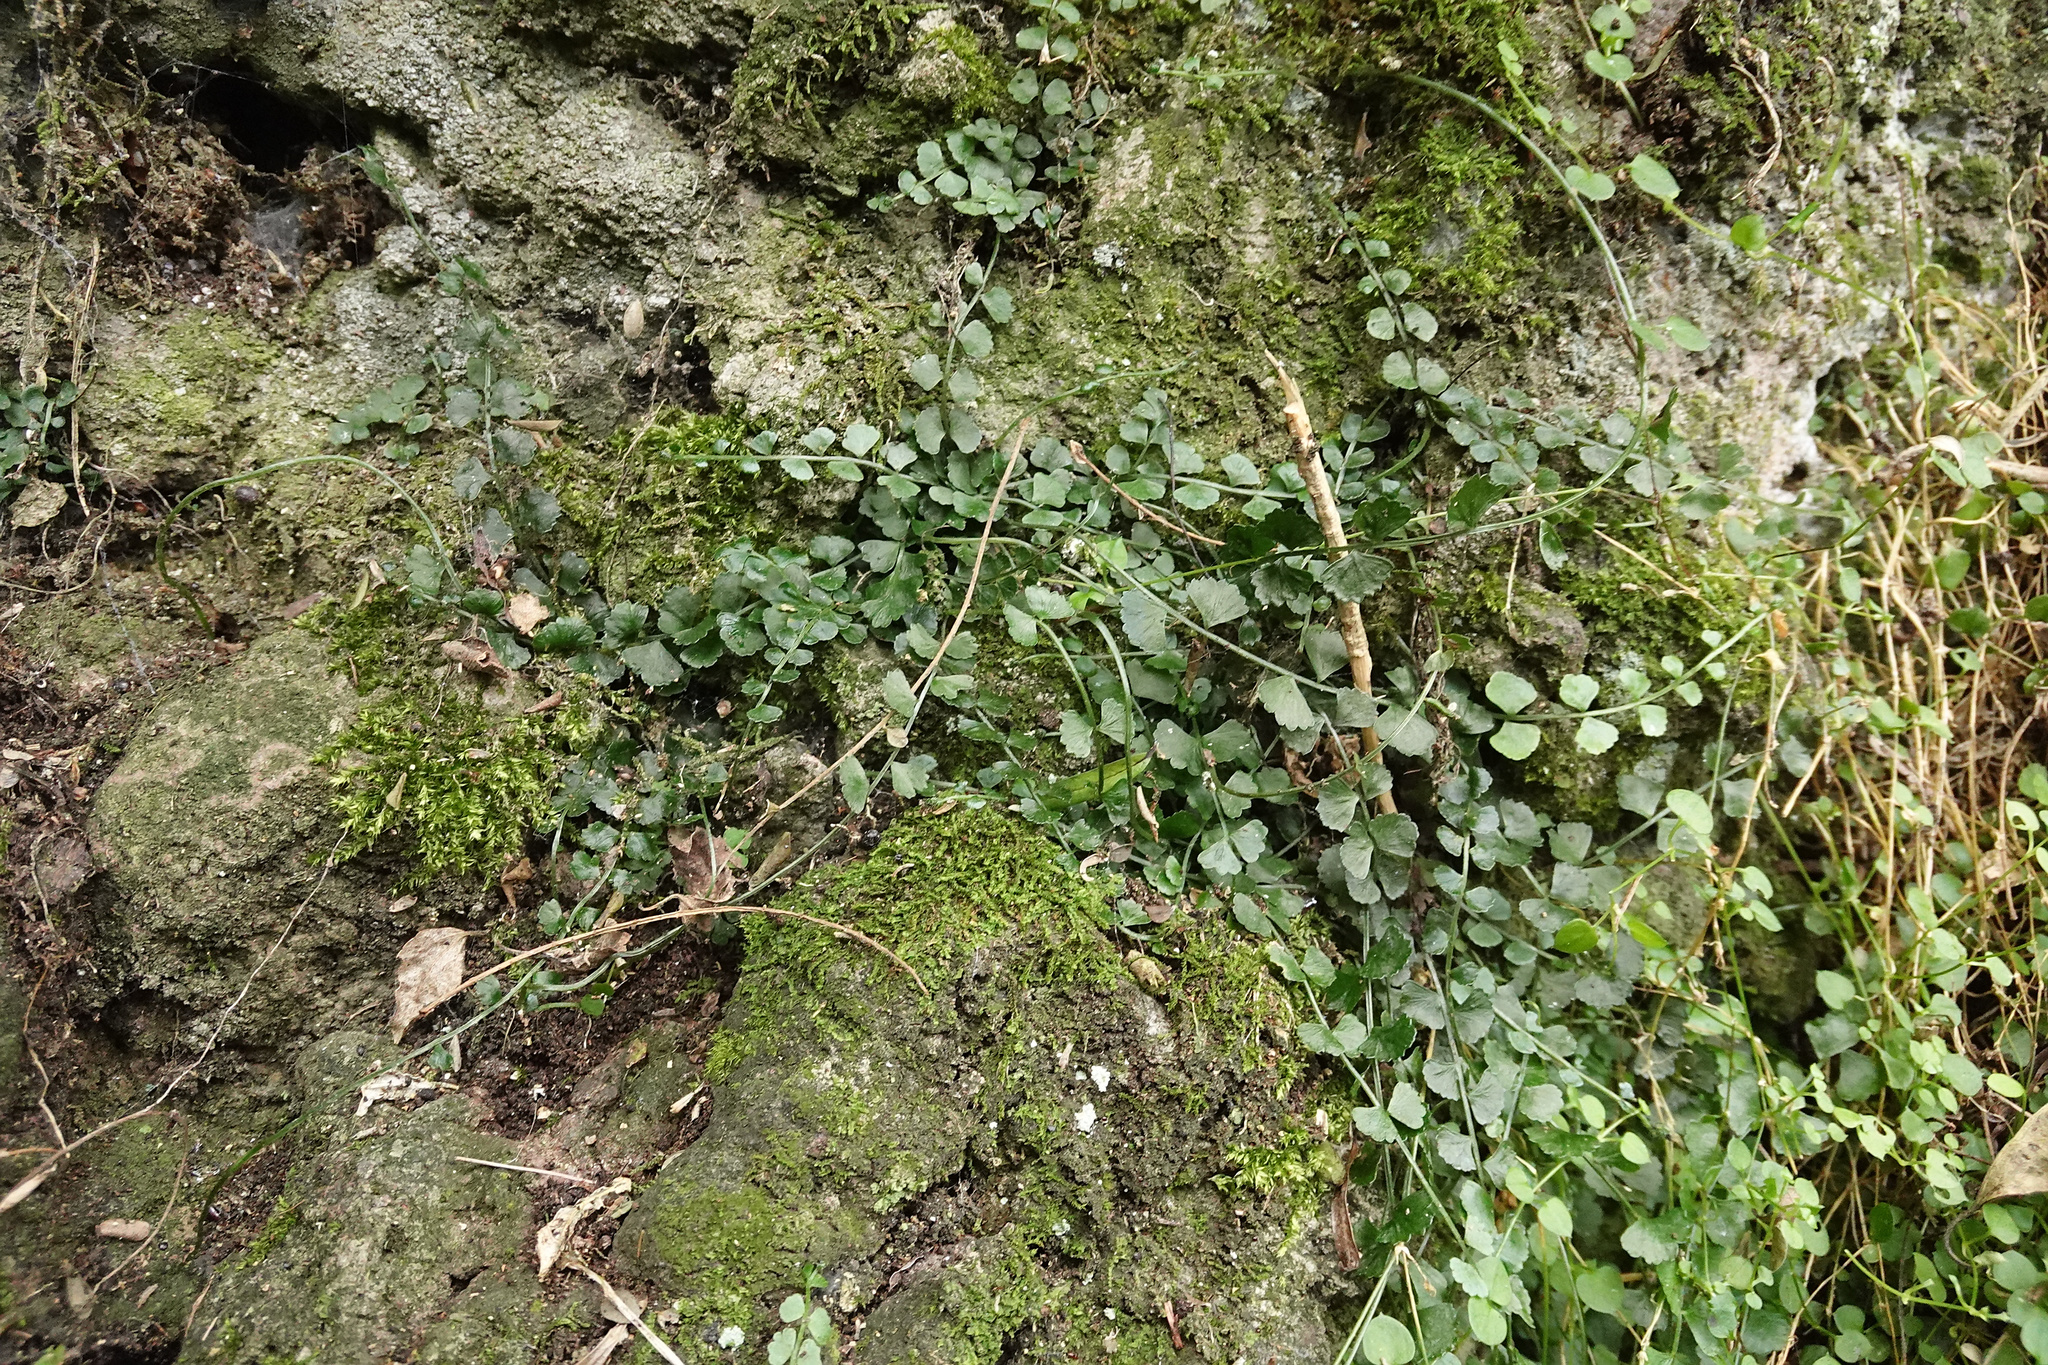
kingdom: Plantae
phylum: Tracheophyta
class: Polypodiopsida
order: Polypodiales
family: Aspleniaceae
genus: Asplenium
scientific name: Asplenium flabellifolium
